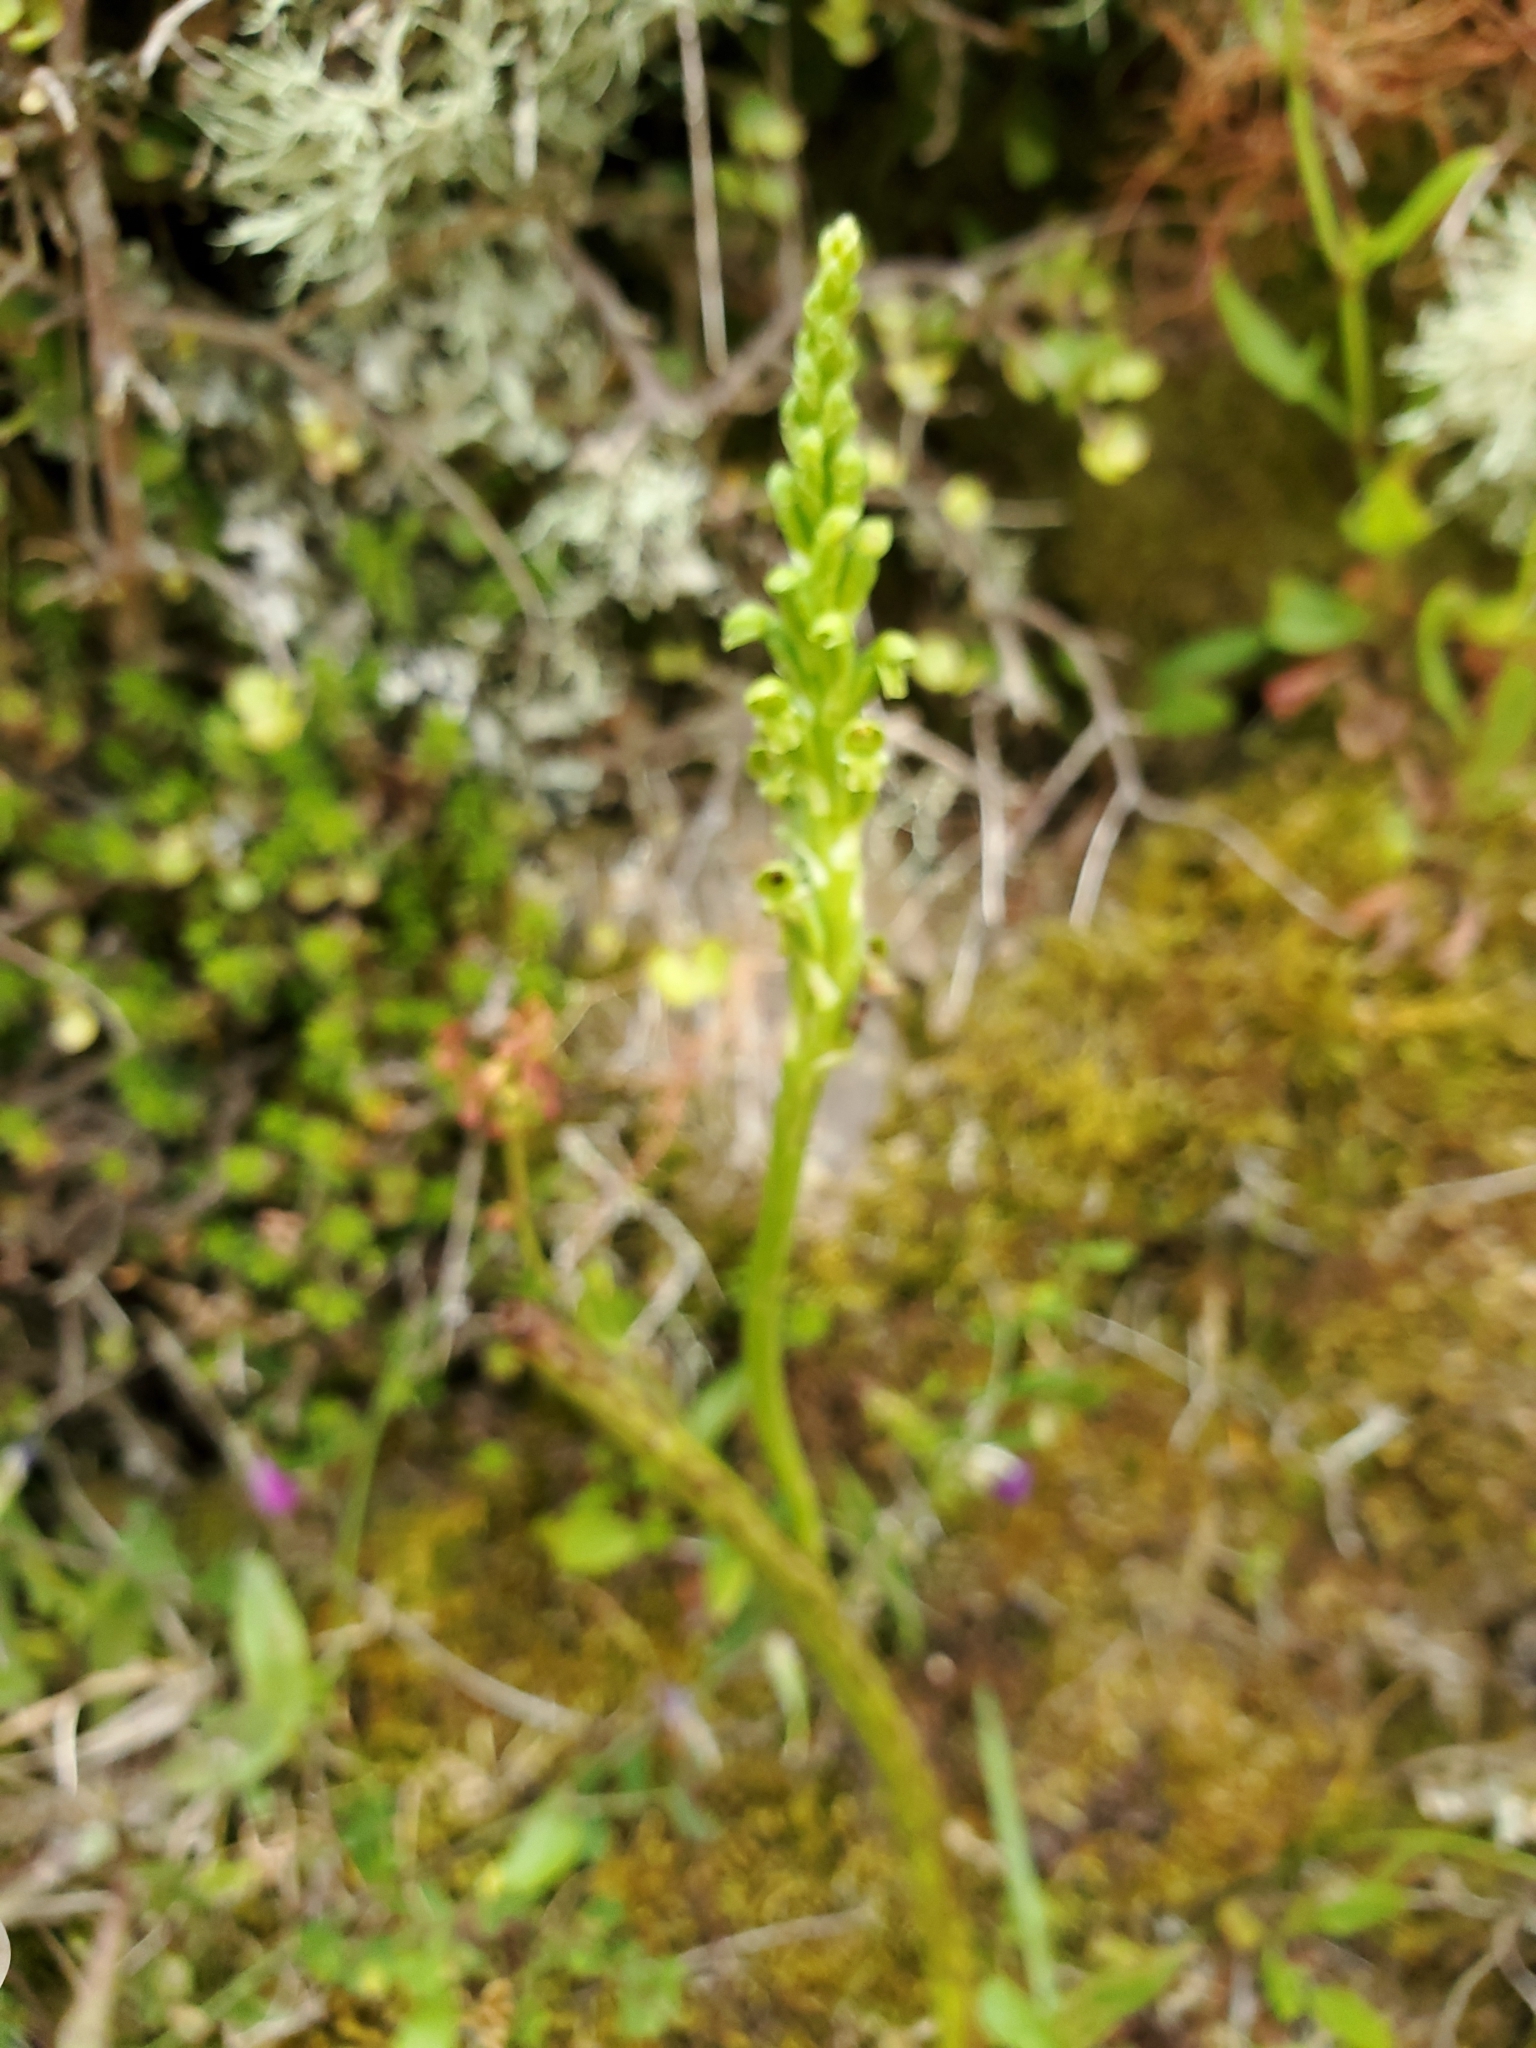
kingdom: Plantae
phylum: Tracheophyta
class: Liliopsida
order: Asparagales
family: Orchidaceae
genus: Microtis
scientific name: Microtis unifolia
